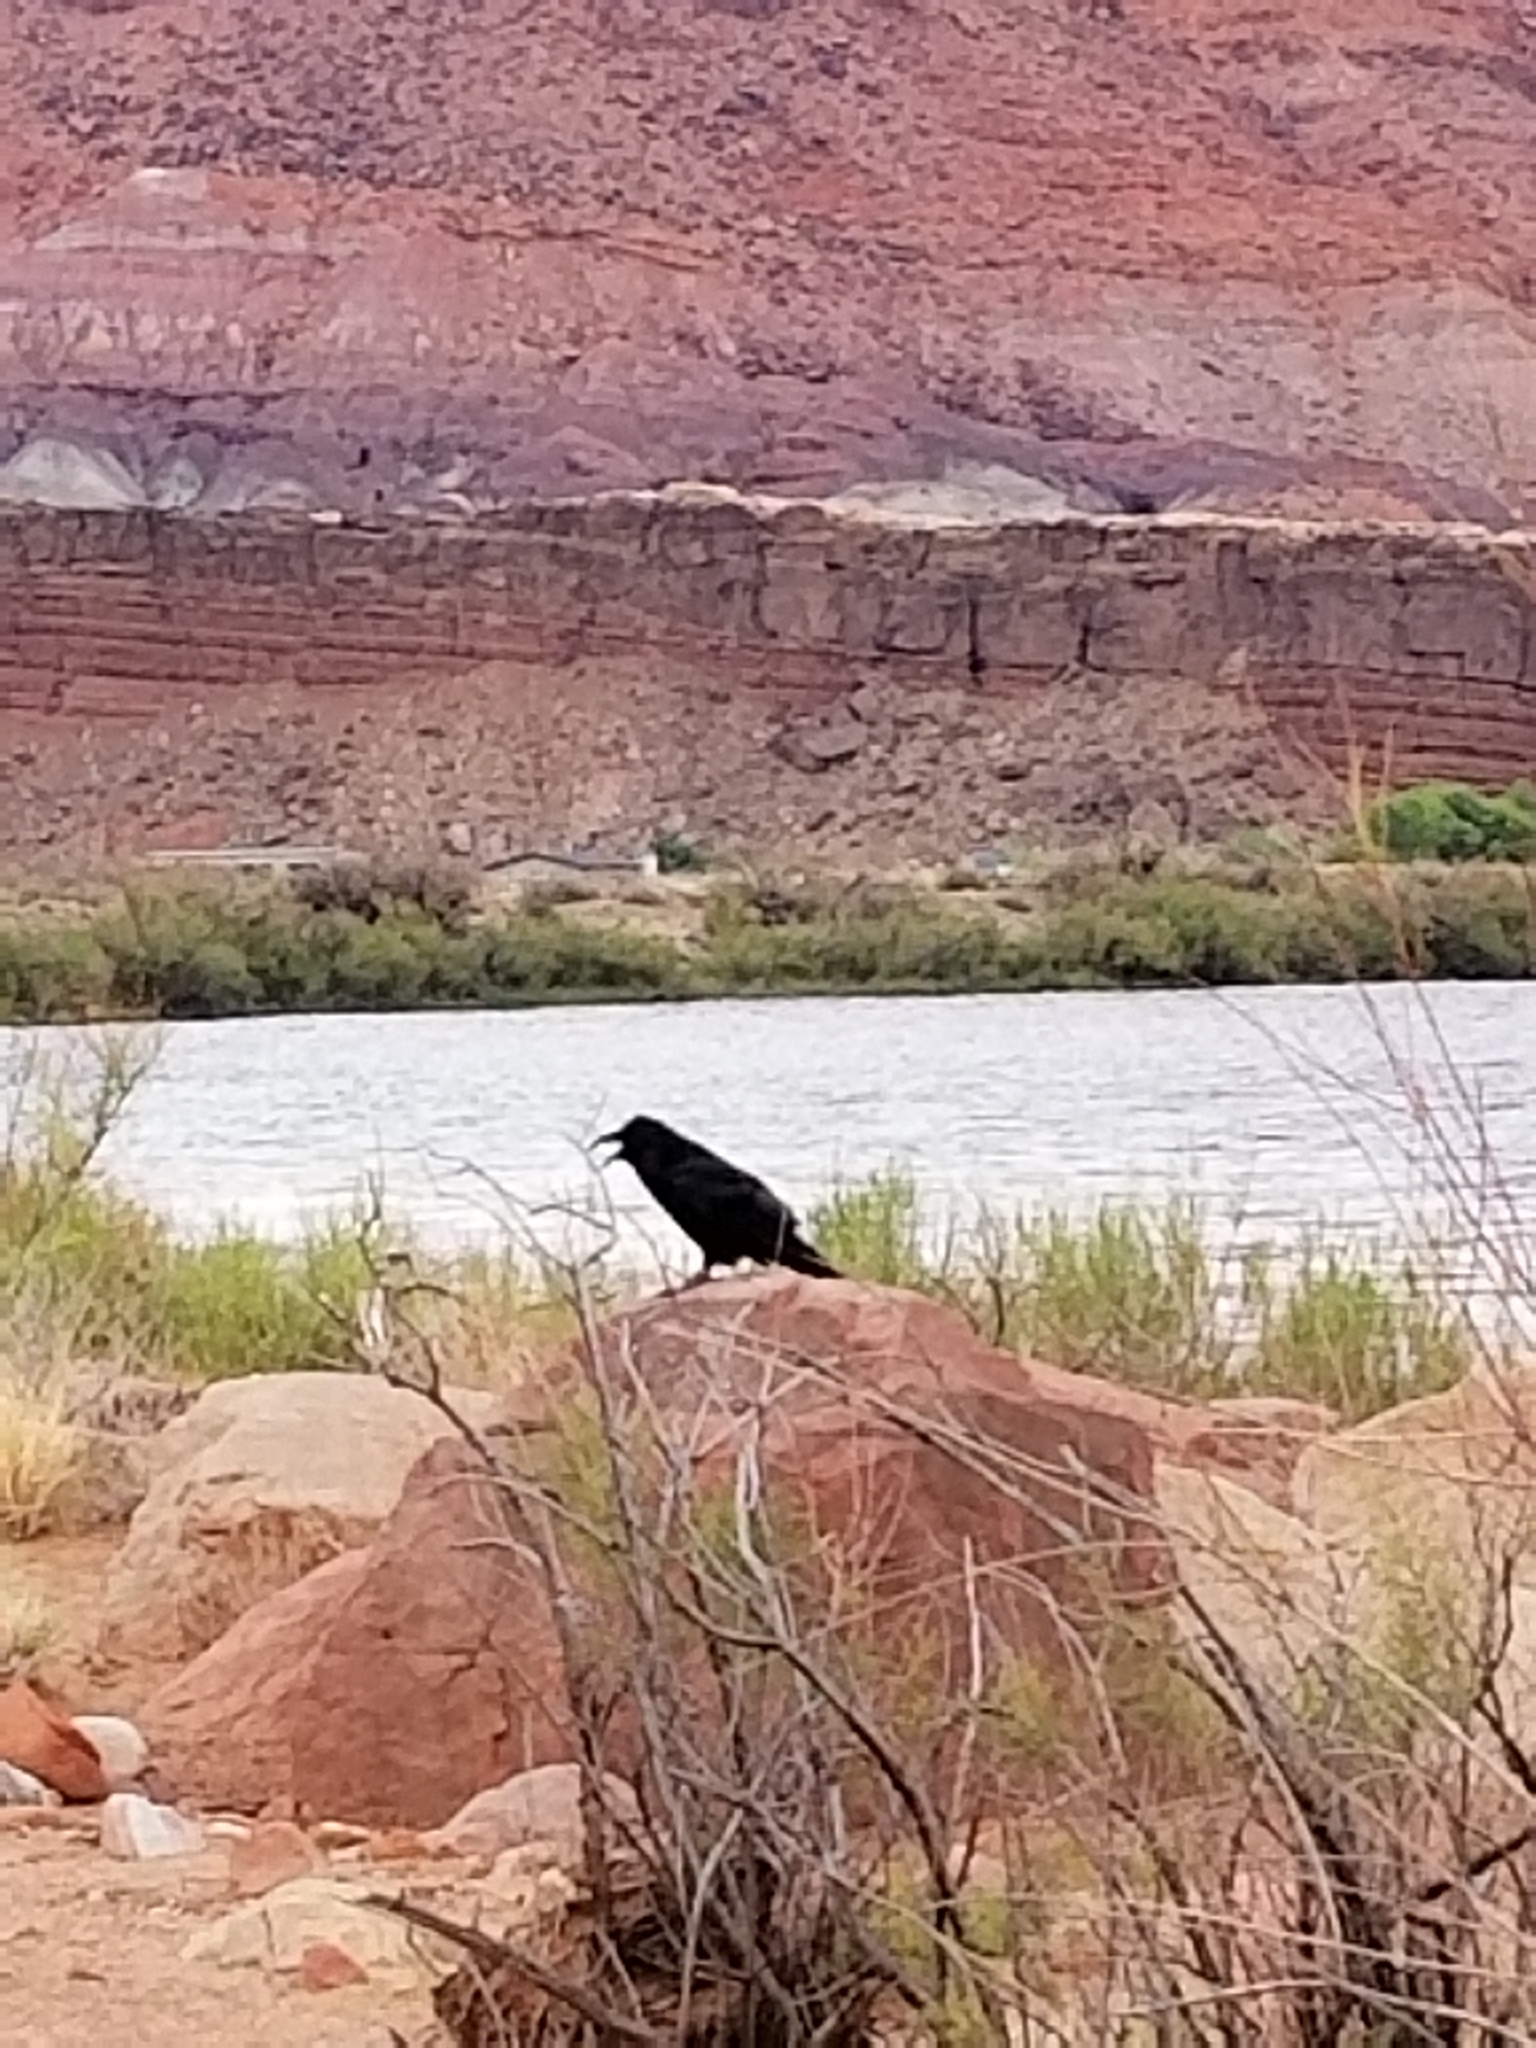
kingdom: Animalia
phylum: Chordata
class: Aves
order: Passeriformes
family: Corvidae
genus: Corvus
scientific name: Corvus corax
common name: Common raven
